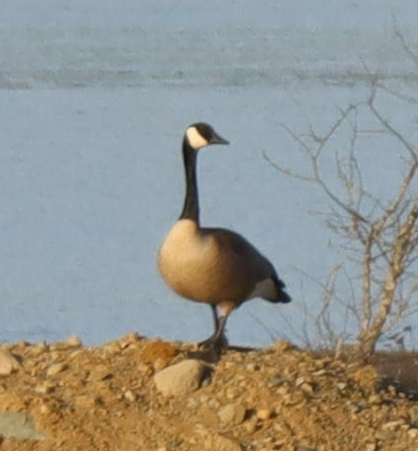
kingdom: Animalia
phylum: Chordata
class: Aves
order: Anseriformes
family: Anatidae
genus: Branta
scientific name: Branta canadensis
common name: Canada goose
